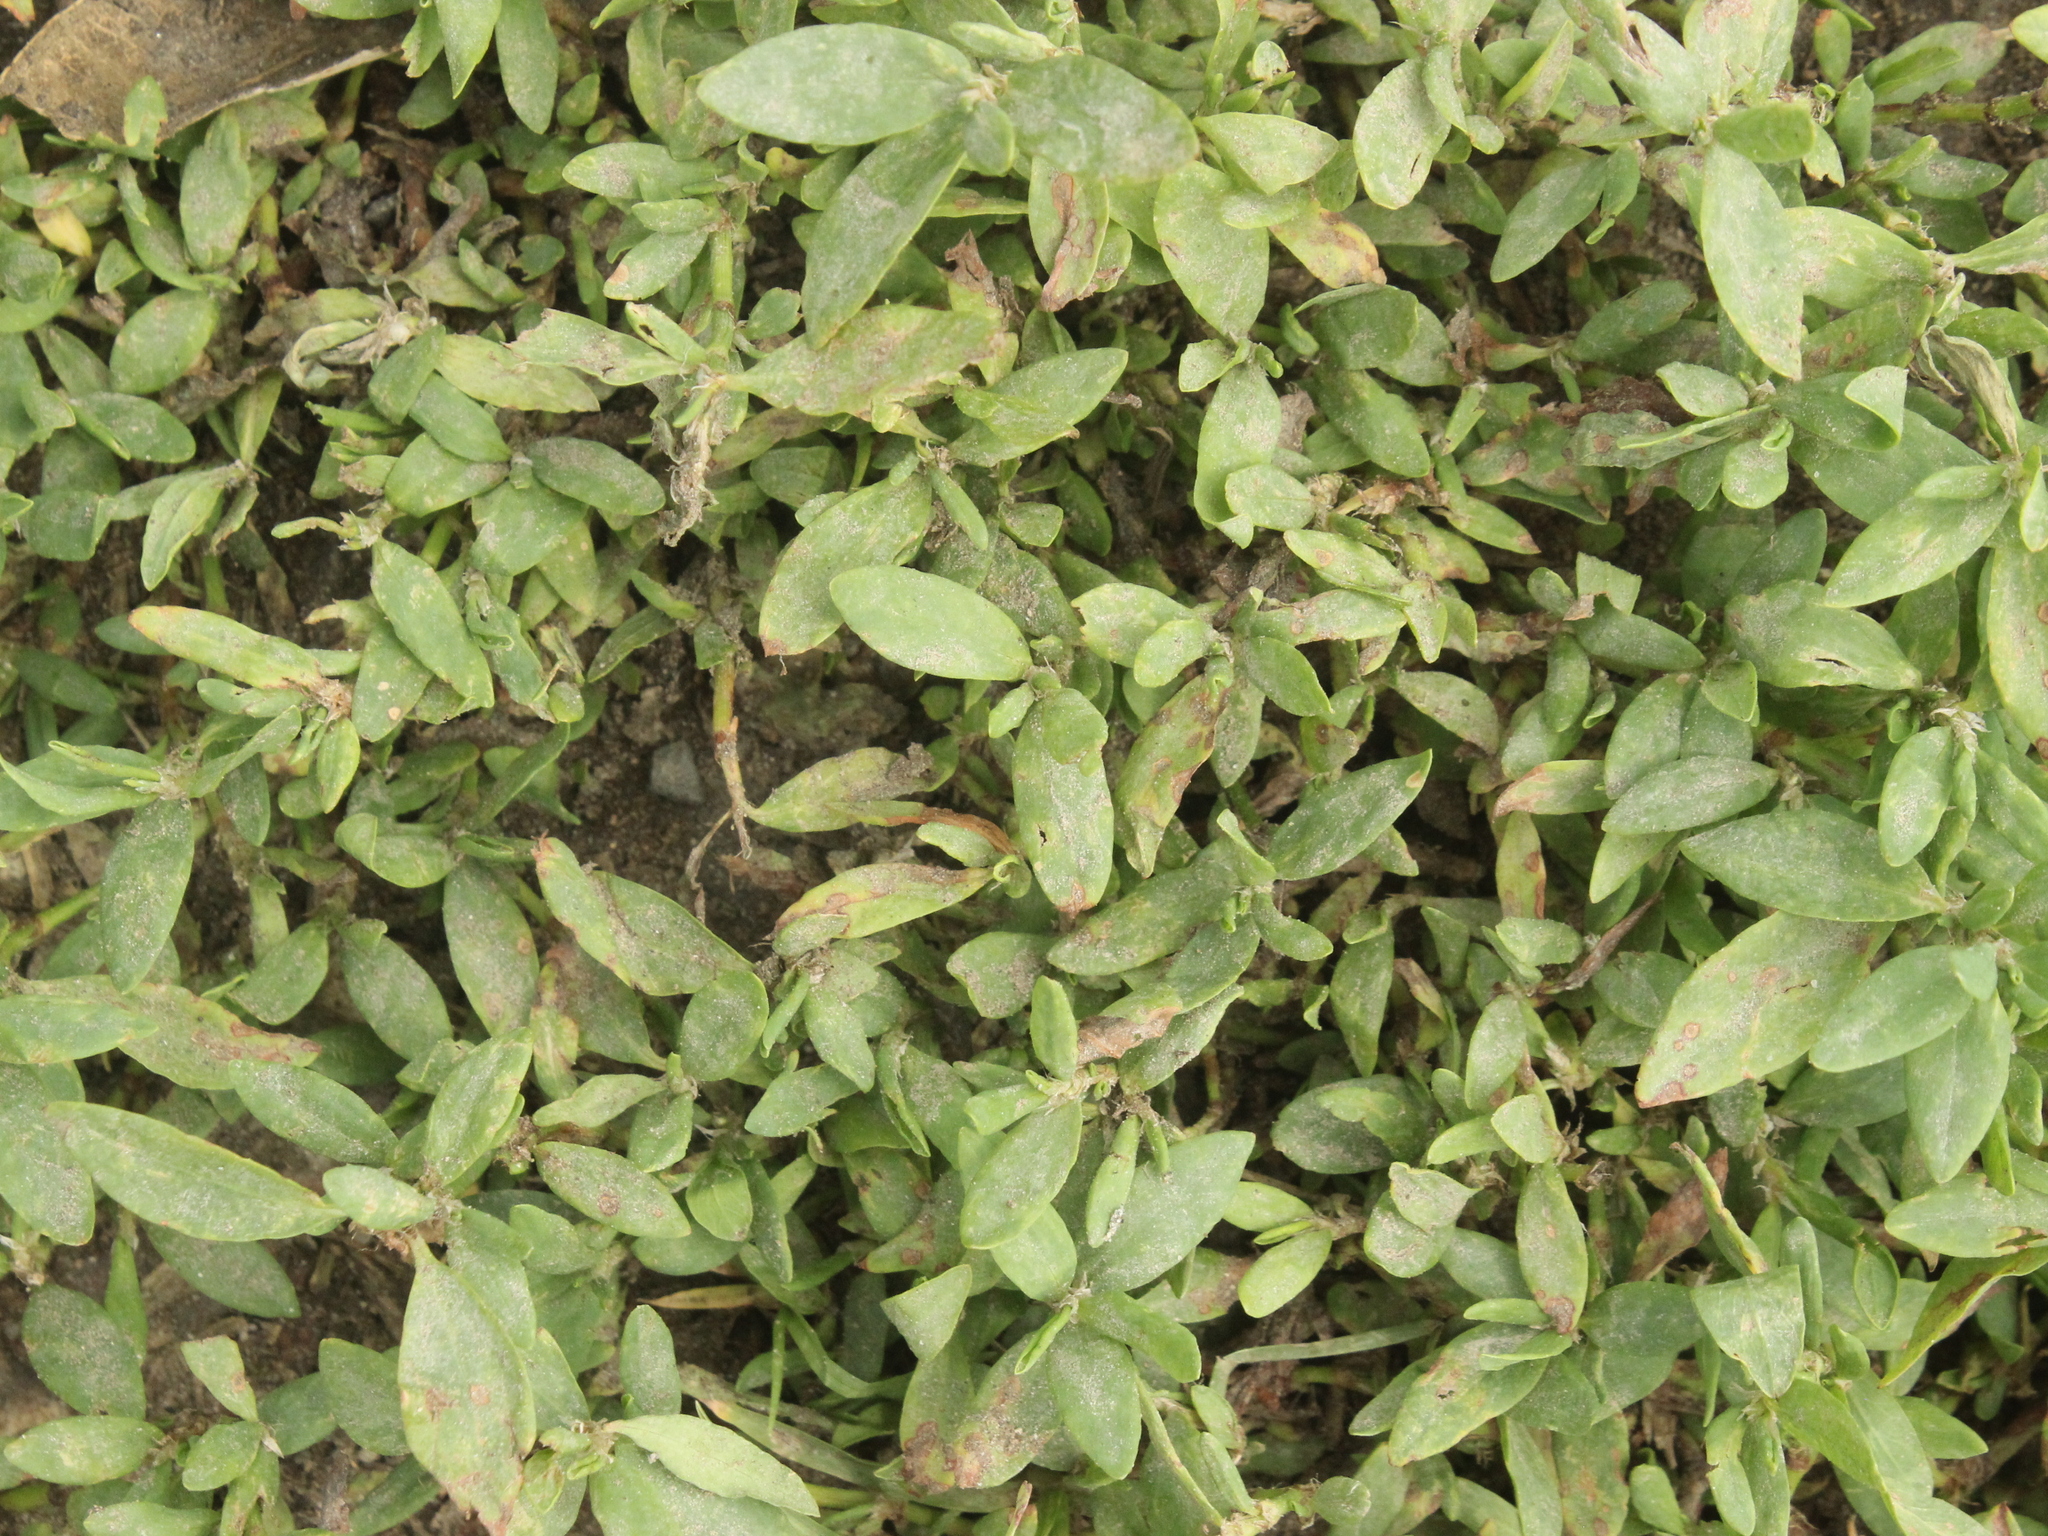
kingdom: Plantae
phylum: Tracheophyta
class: Magnoliopsida
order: Caryophyllales
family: Polygonaceae
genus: Polygonum
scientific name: Polygonum aviculare
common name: Prostrate knotweed
